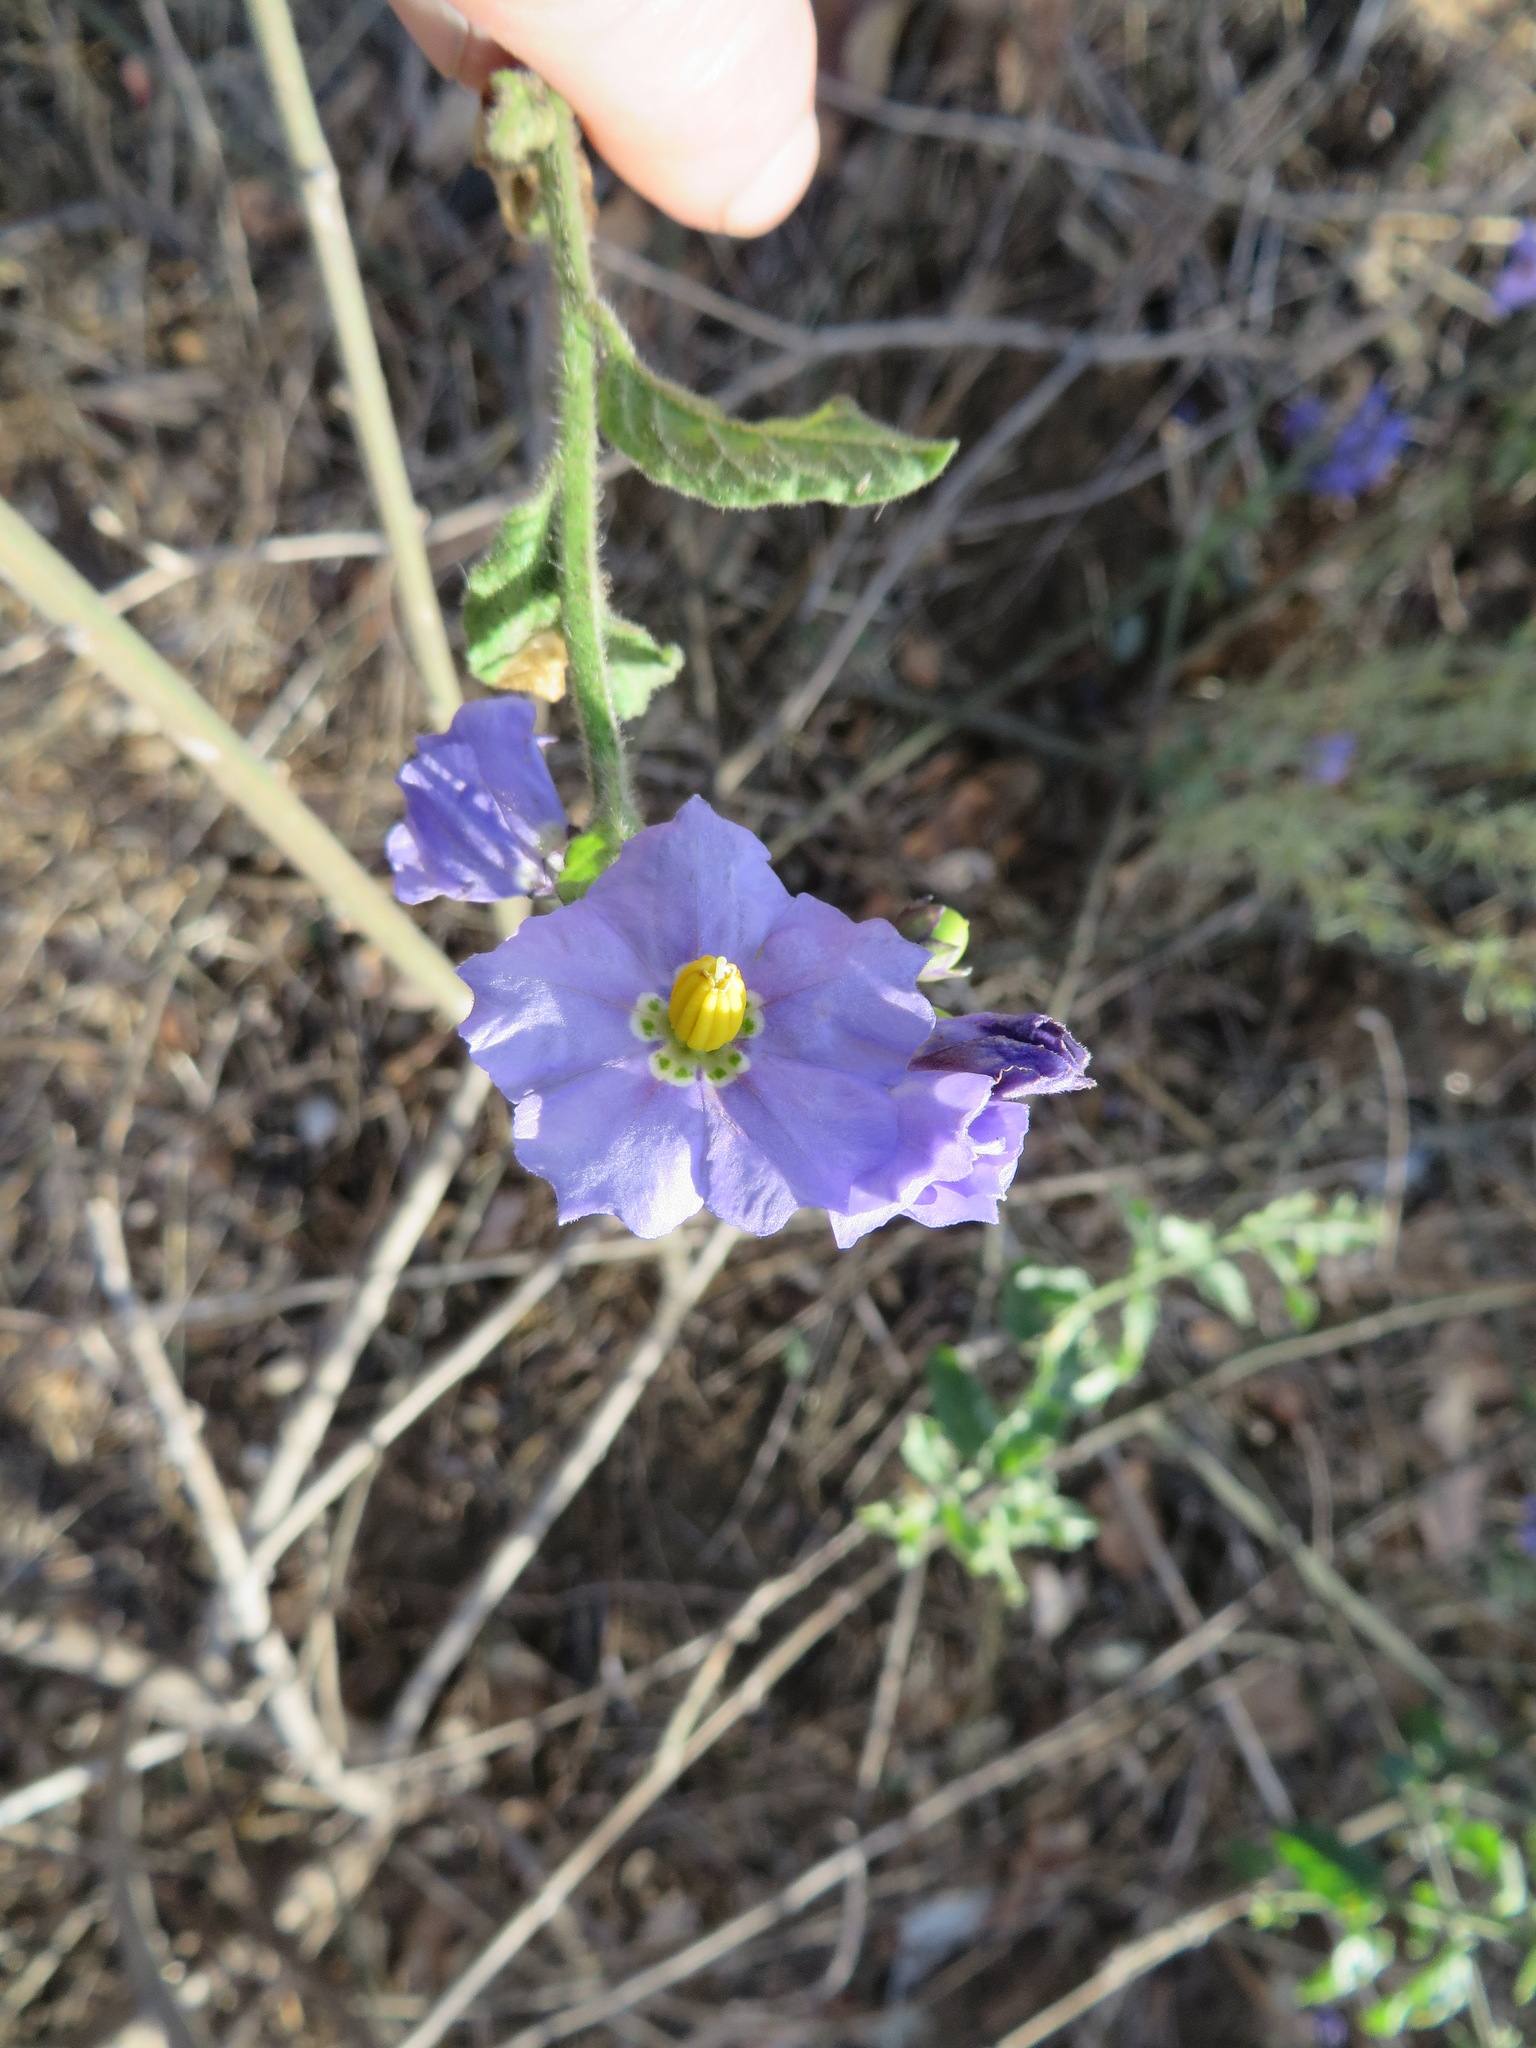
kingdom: Plantae
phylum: Tracheophyta
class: Magnoliopsida
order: Solanales
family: Solanaceae
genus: Solanum
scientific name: Solanum umbelliferum
